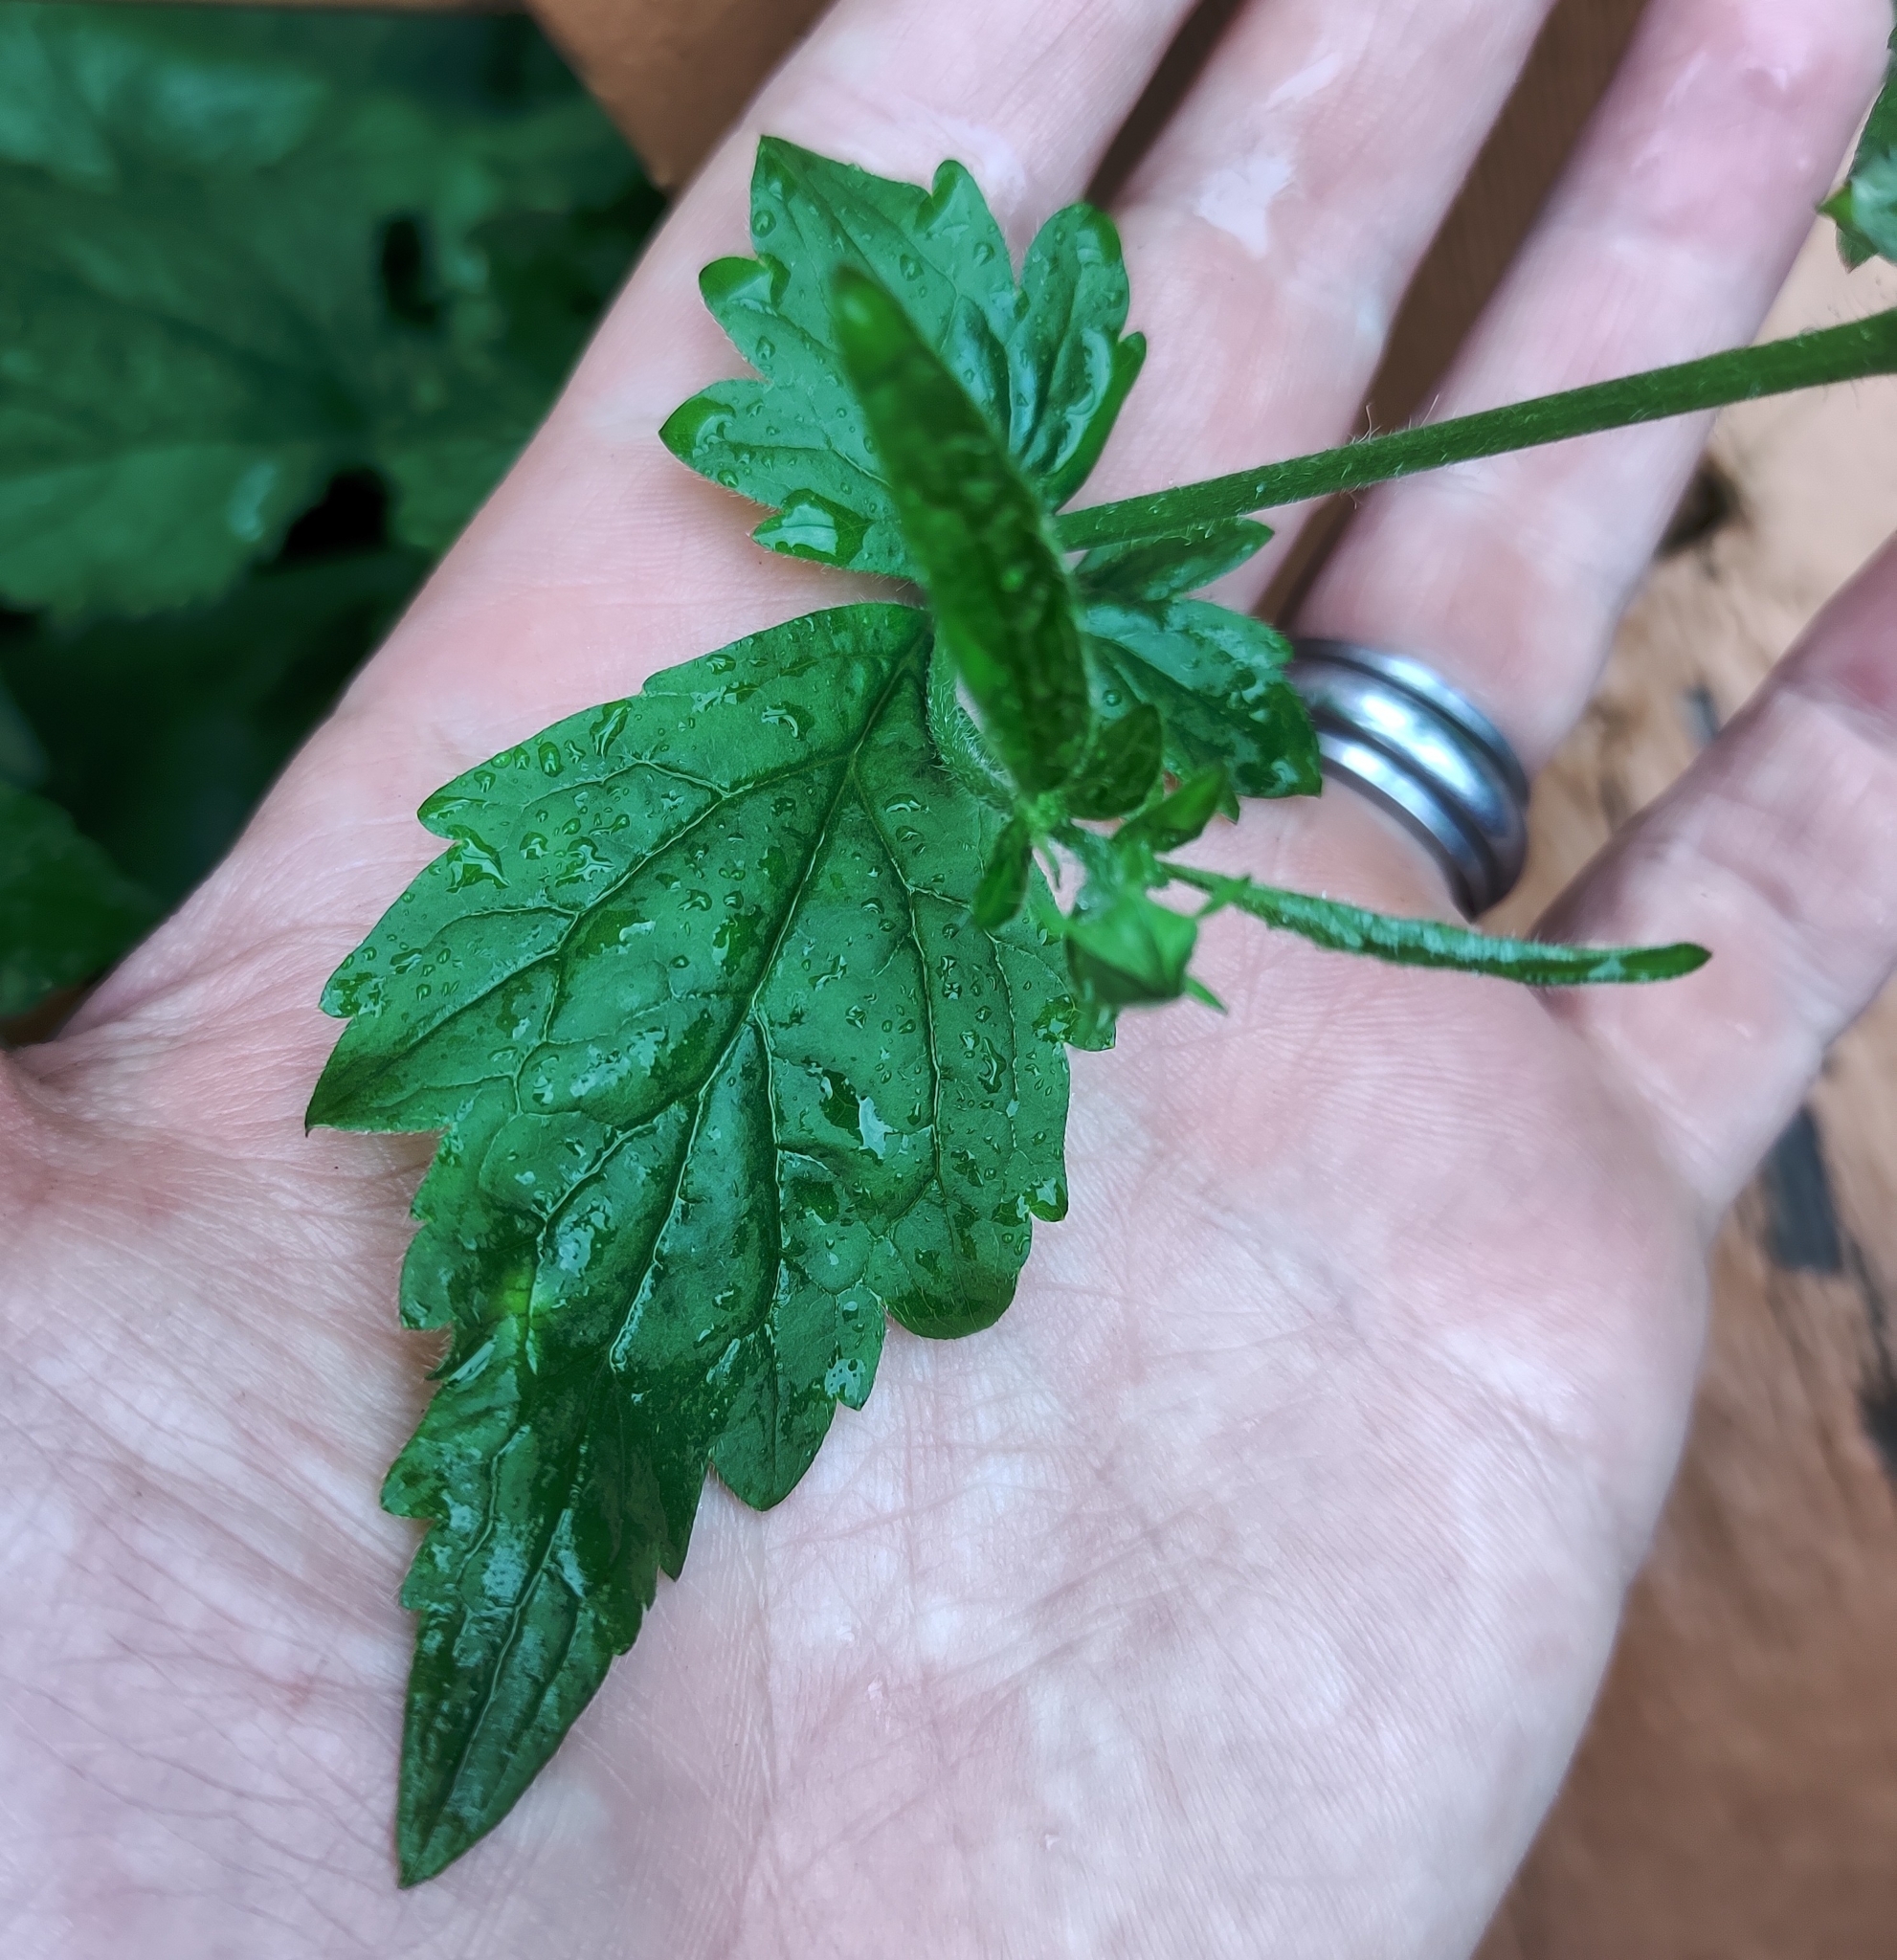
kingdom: Plantae
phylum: Tracheophyta
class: Magnoliopsida
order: Rosales
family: Rosaceae
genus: Geum
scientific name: Geum urbanum
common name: Wood avens
